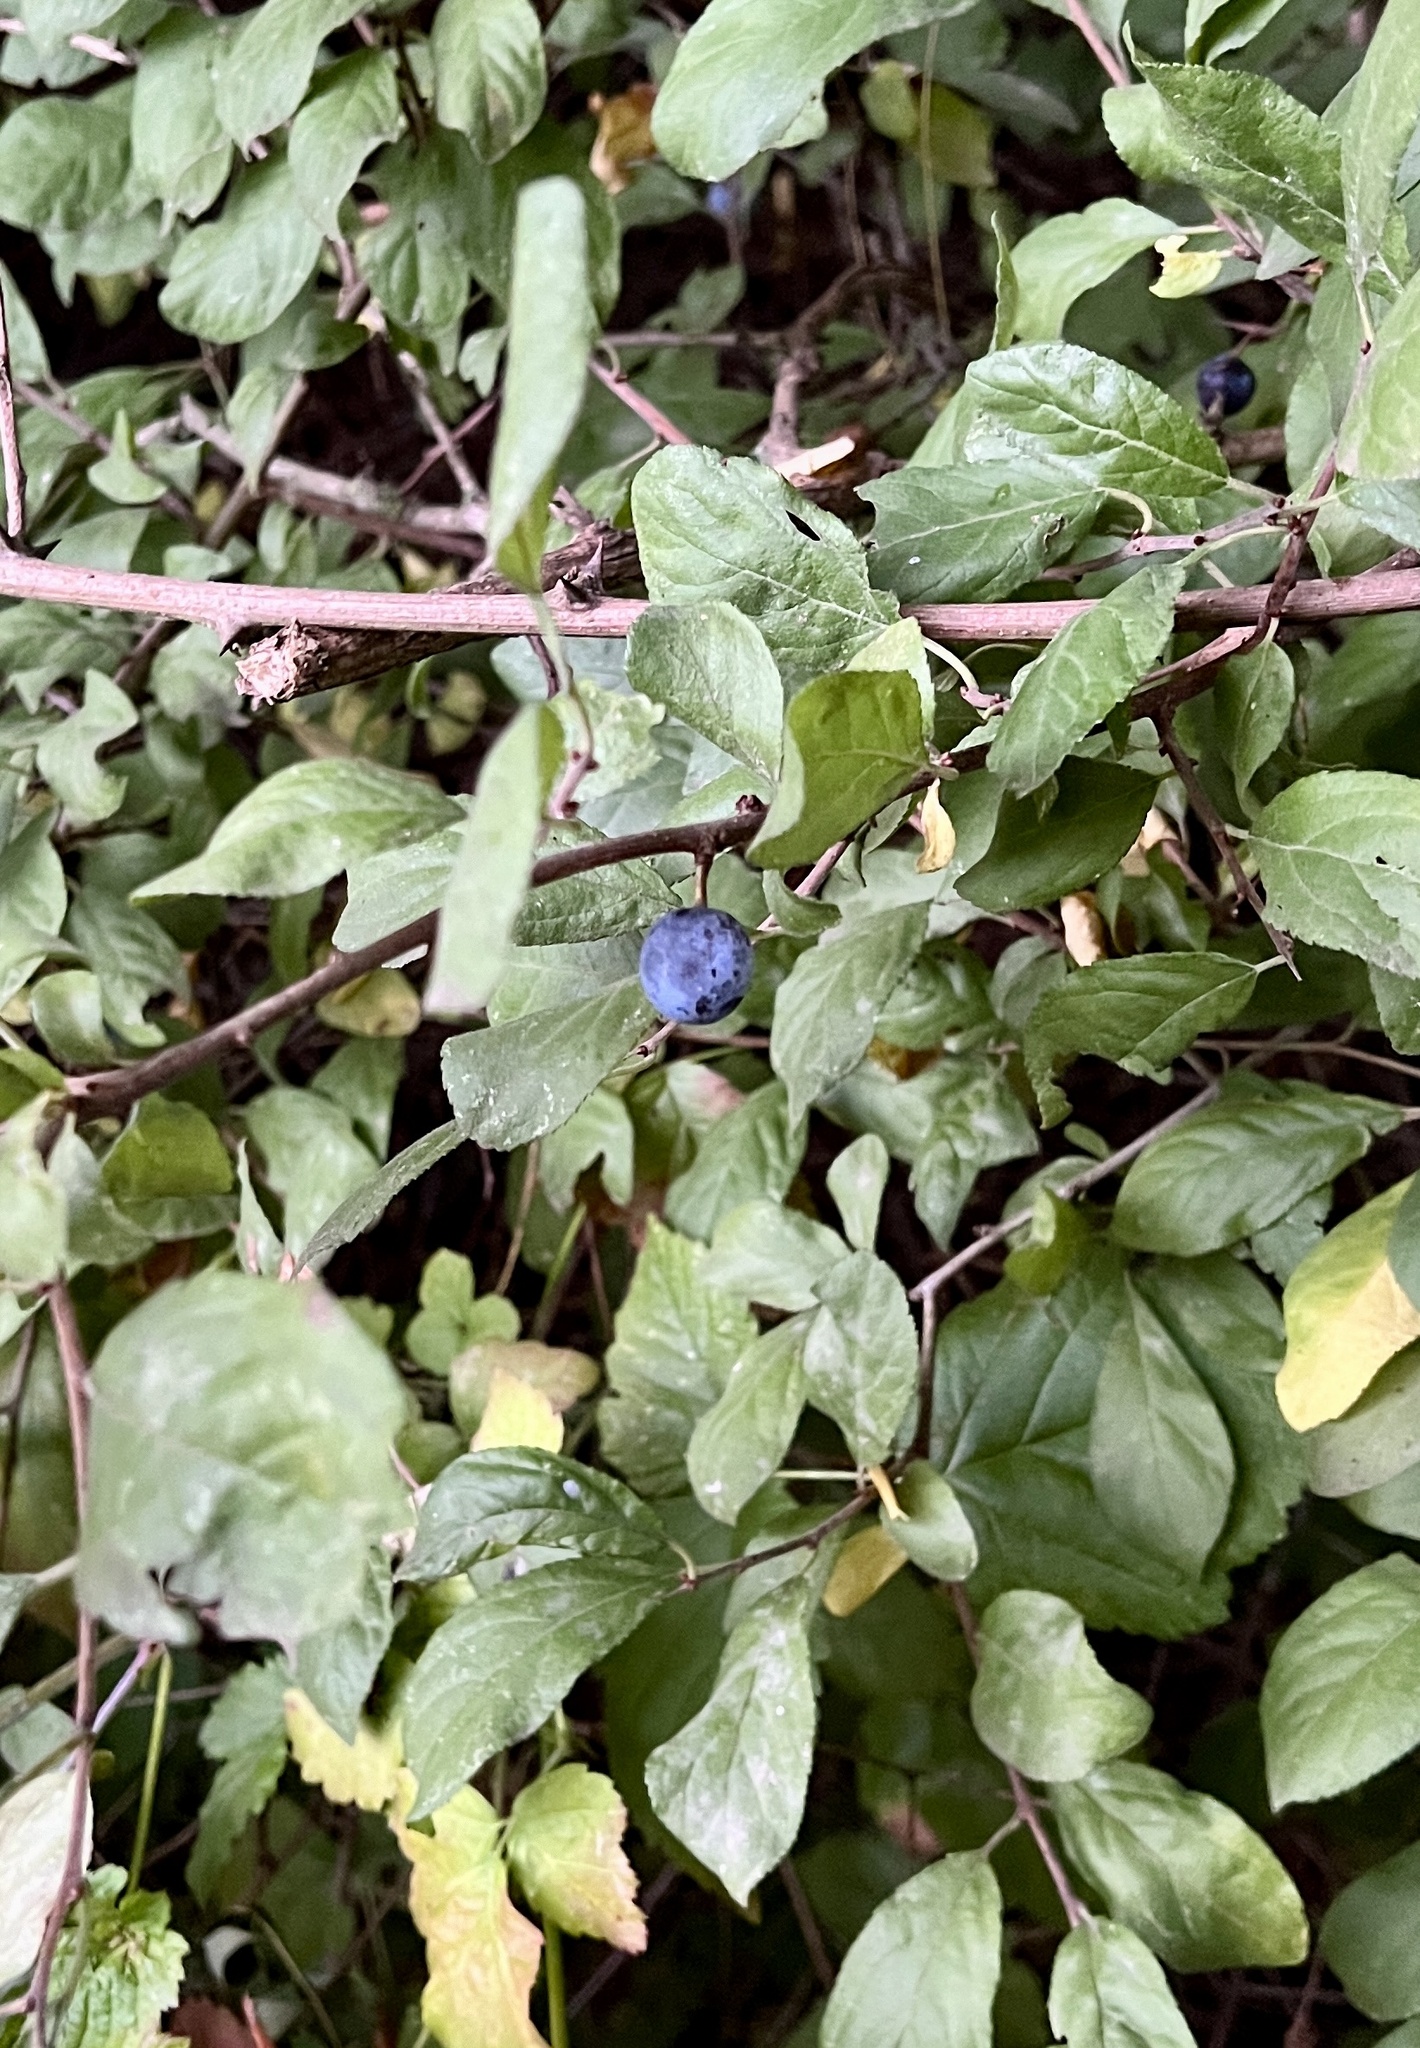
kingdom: Plantae
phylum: Tracheophyta
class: Magnoliopsida
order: Rosales
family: Rosaceae
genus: Prunus
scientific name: Prunus spinosa
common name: Blackthorn
